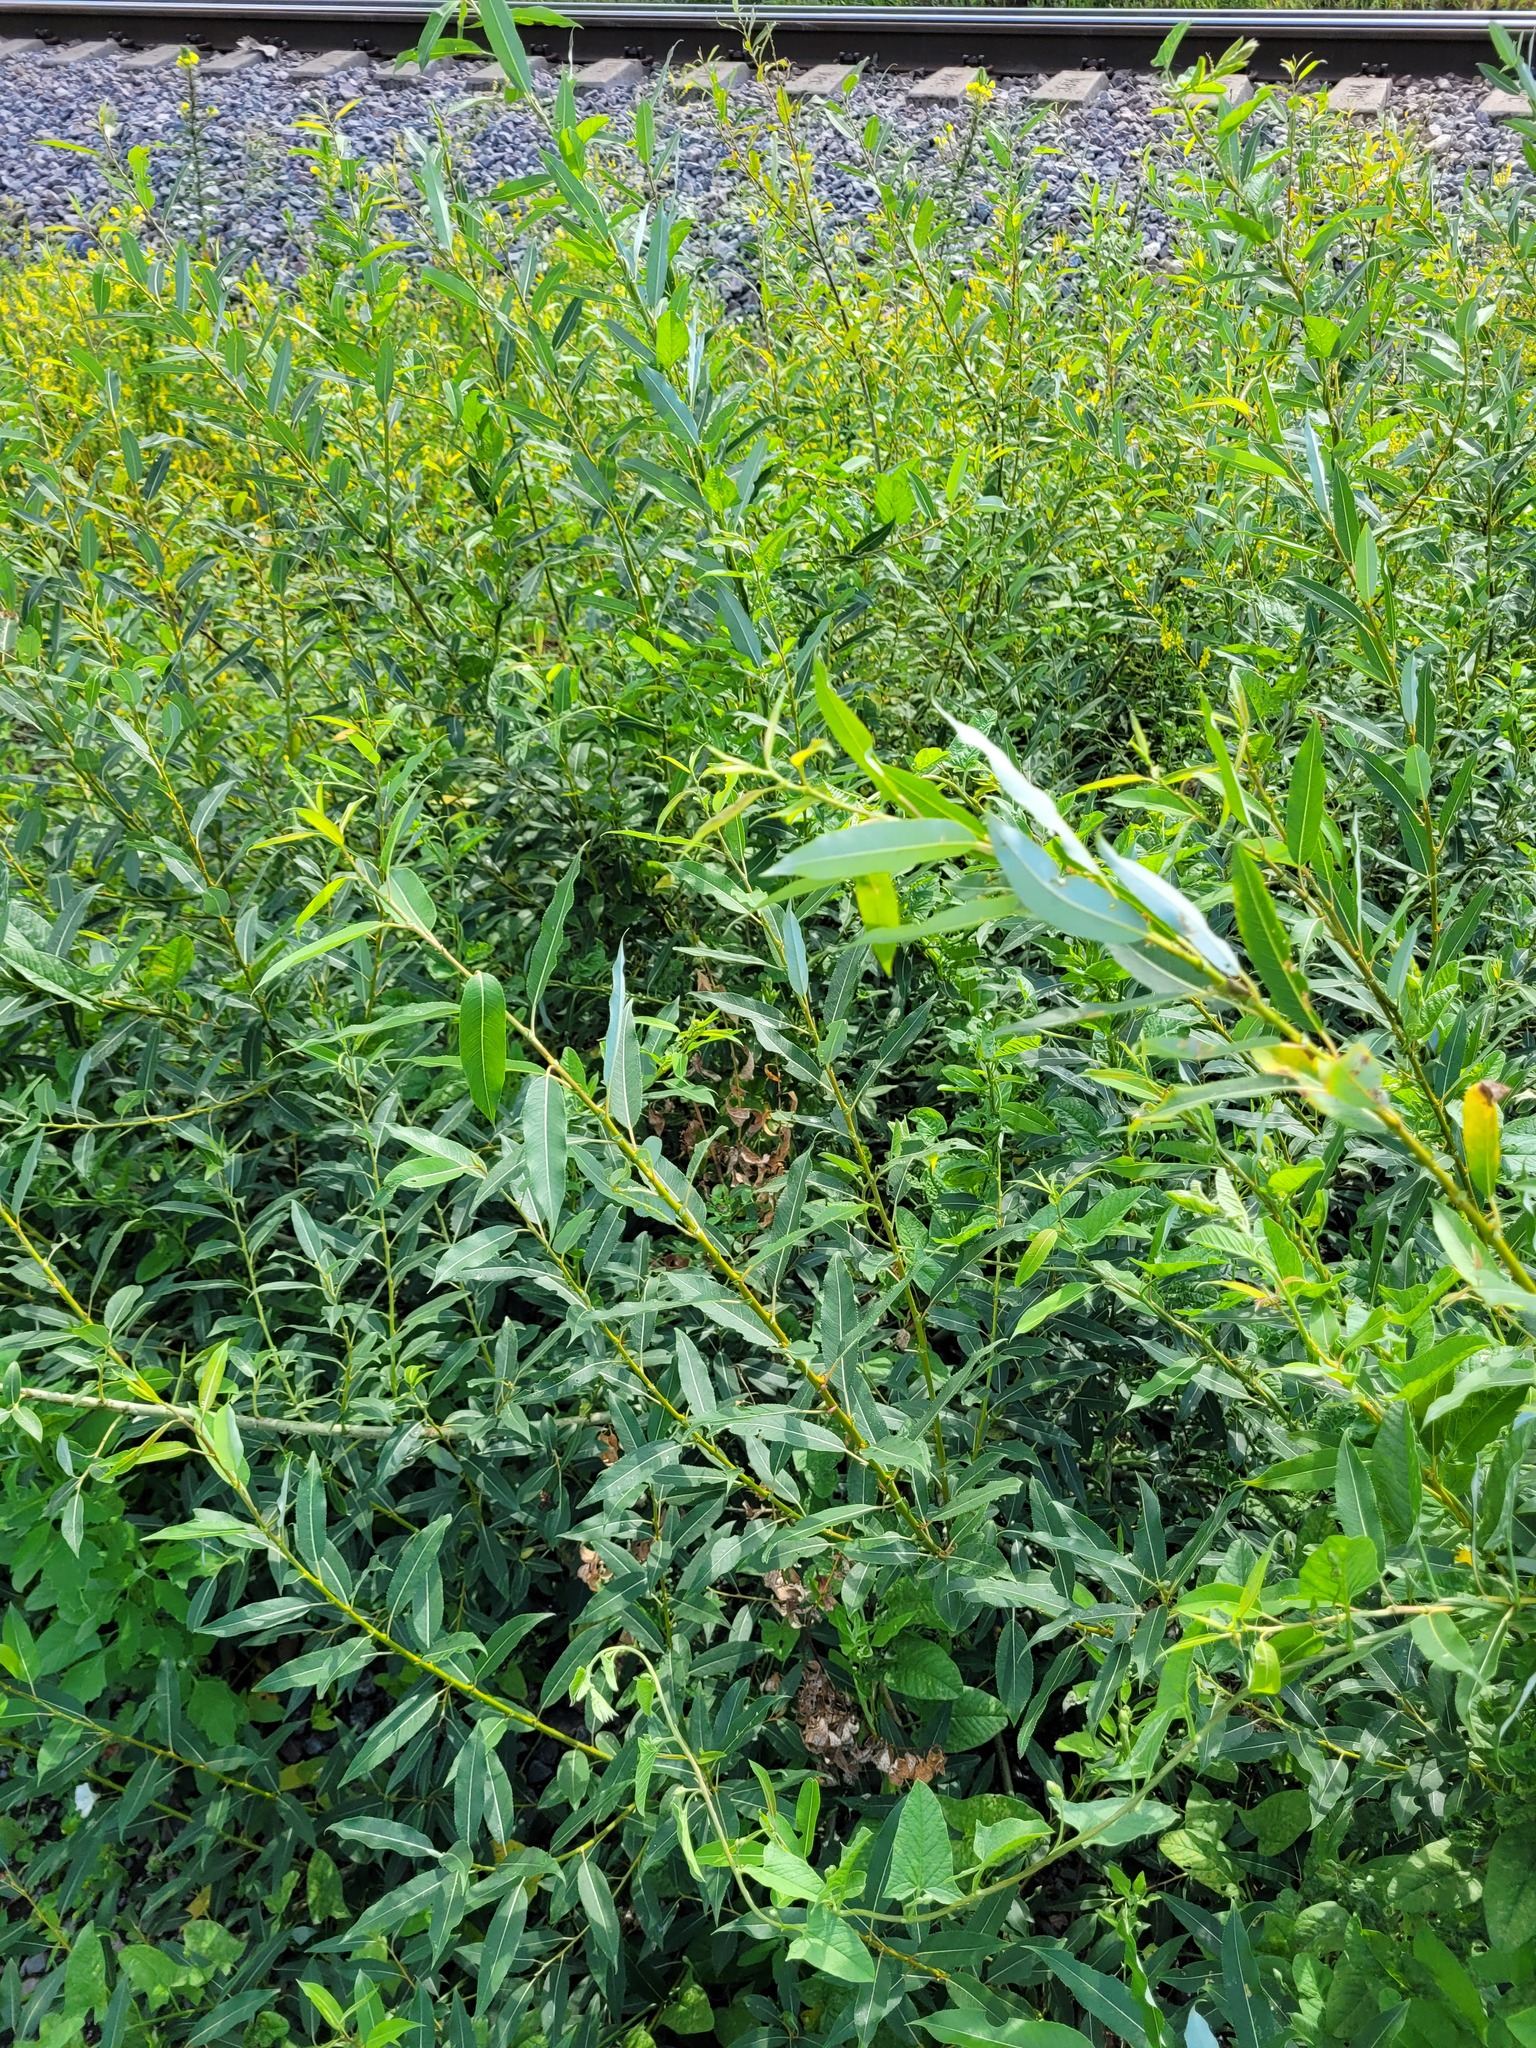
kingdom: Plantae
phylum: Tracheophyta
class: Magnoliopsida
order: Malpighiales
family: Salicaceae
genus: Salix
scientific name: Salix triandra
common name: Almond willow
